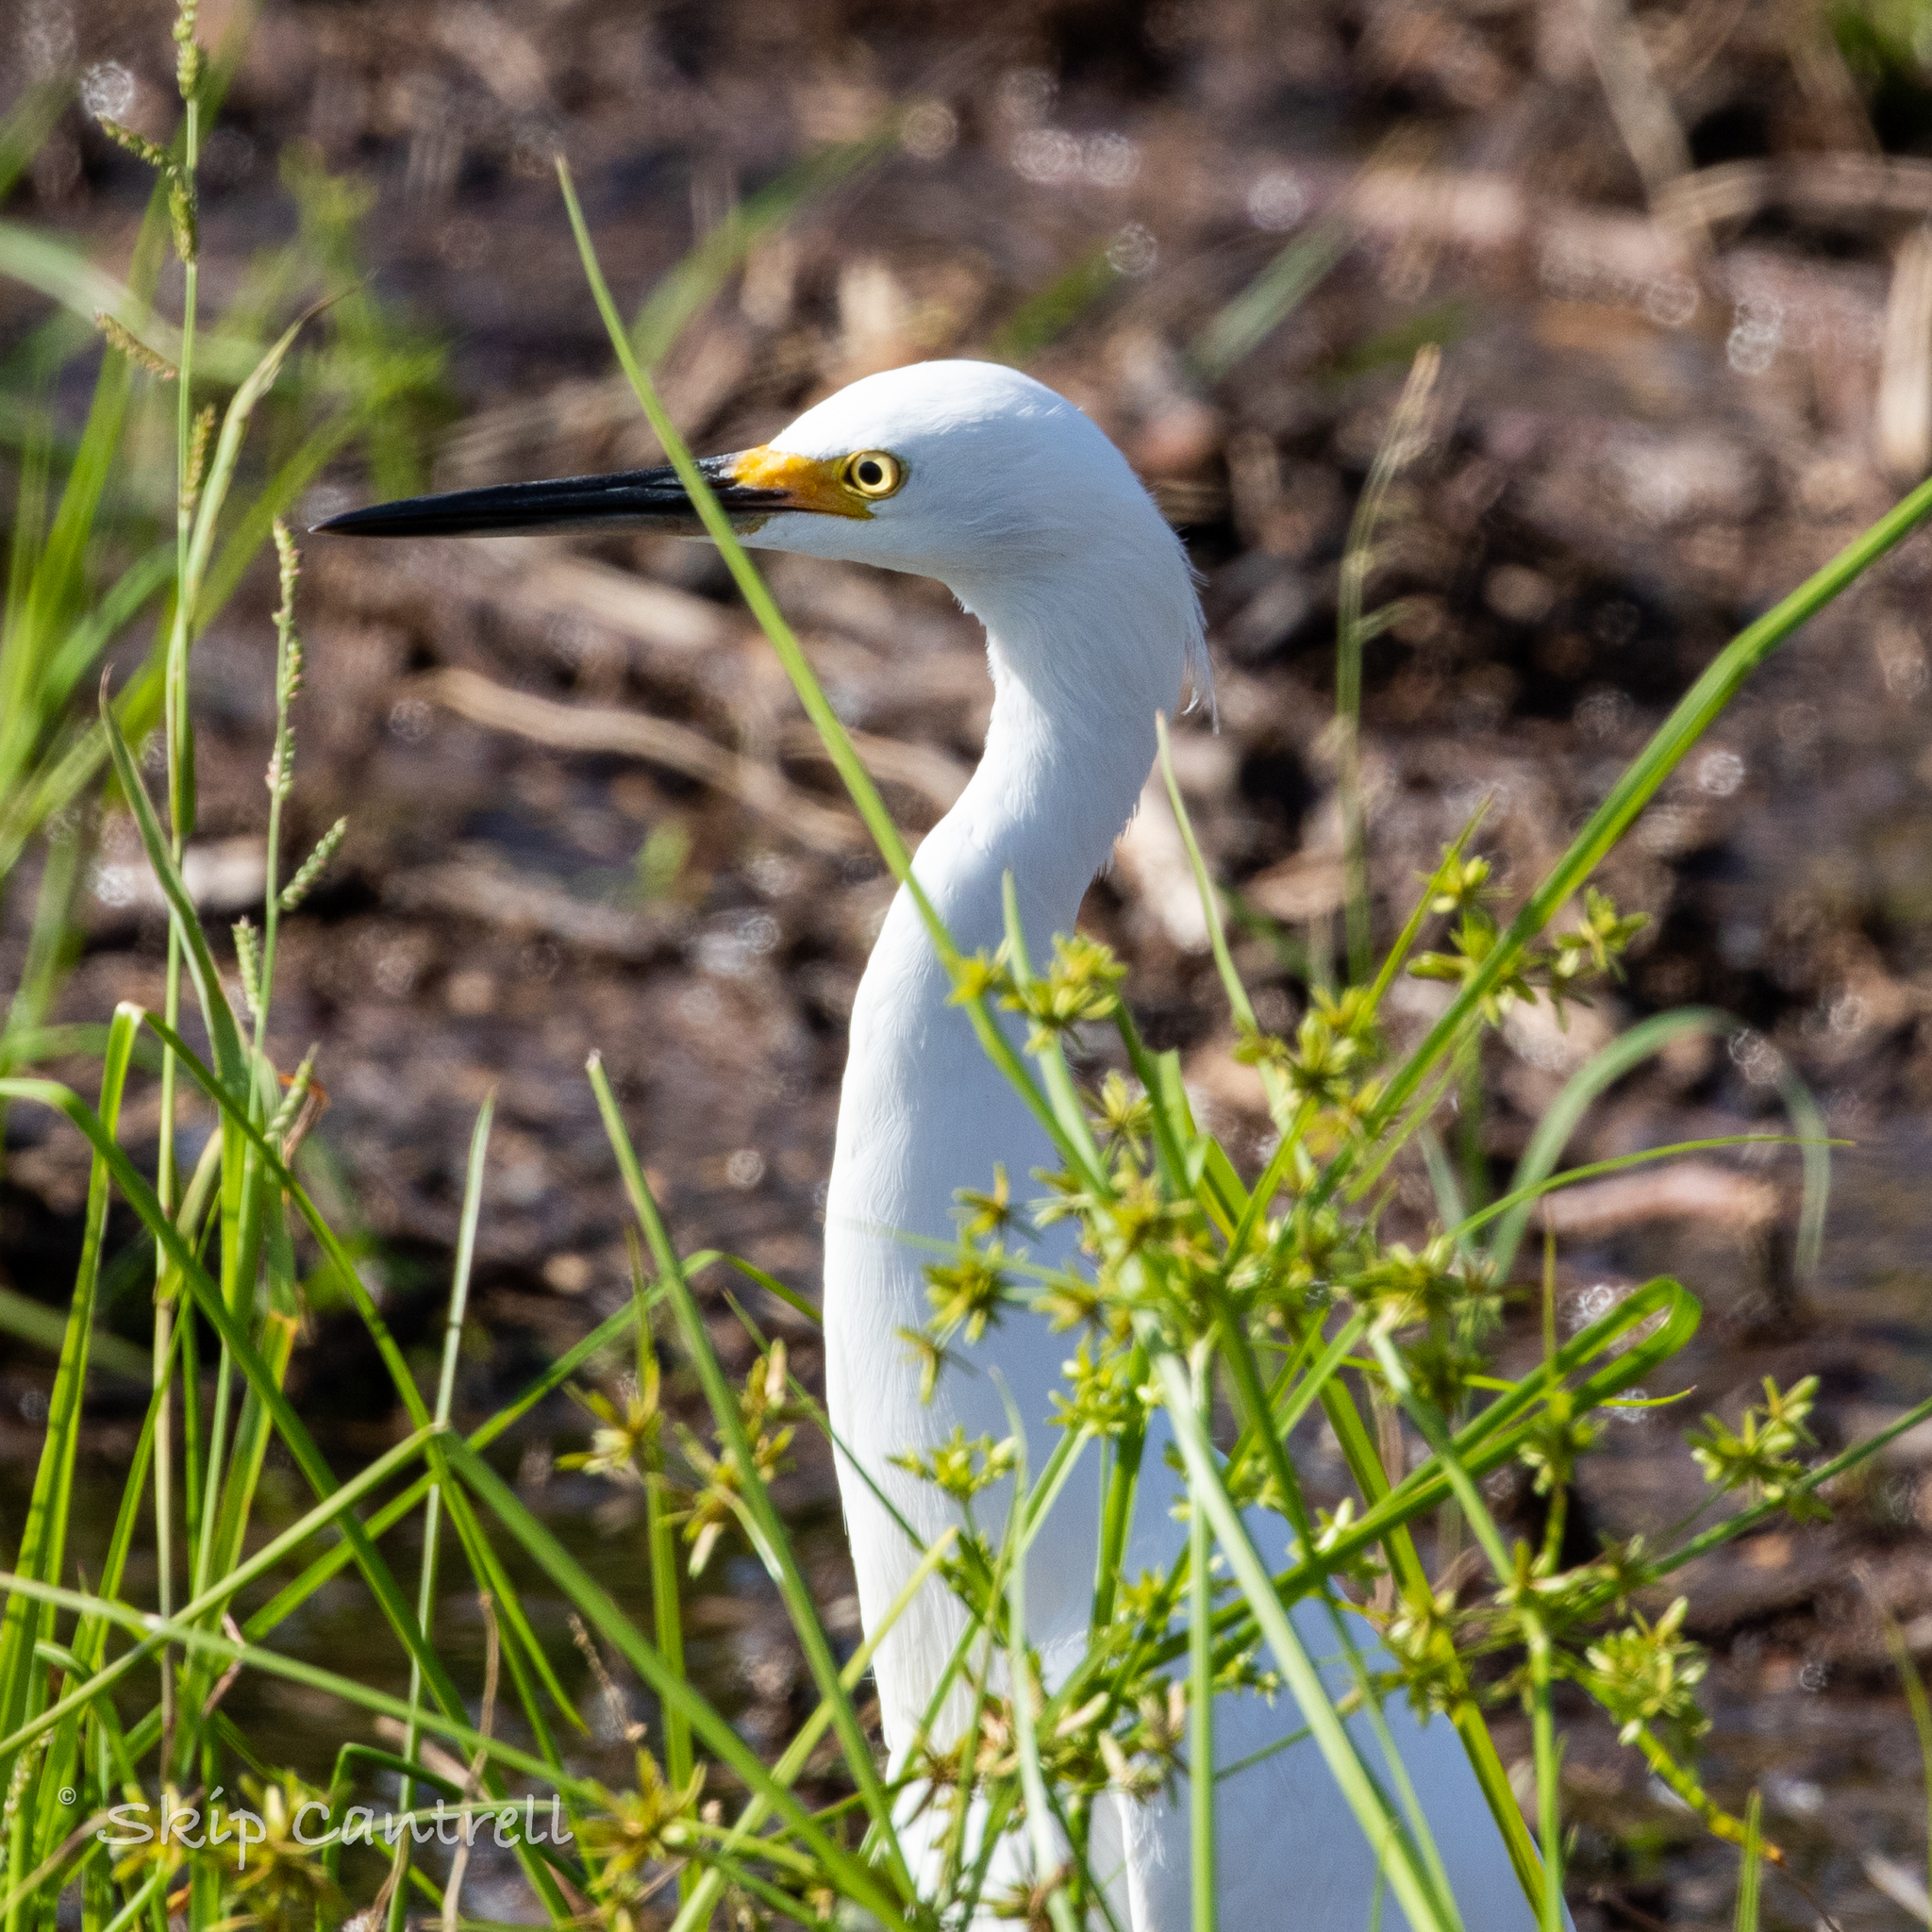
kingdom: Animalia
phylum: Chordata
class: Aves
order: Pelecaniformes
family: Ardeidae
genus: Egretta
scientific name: Egretta thula
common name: Snowy egret
